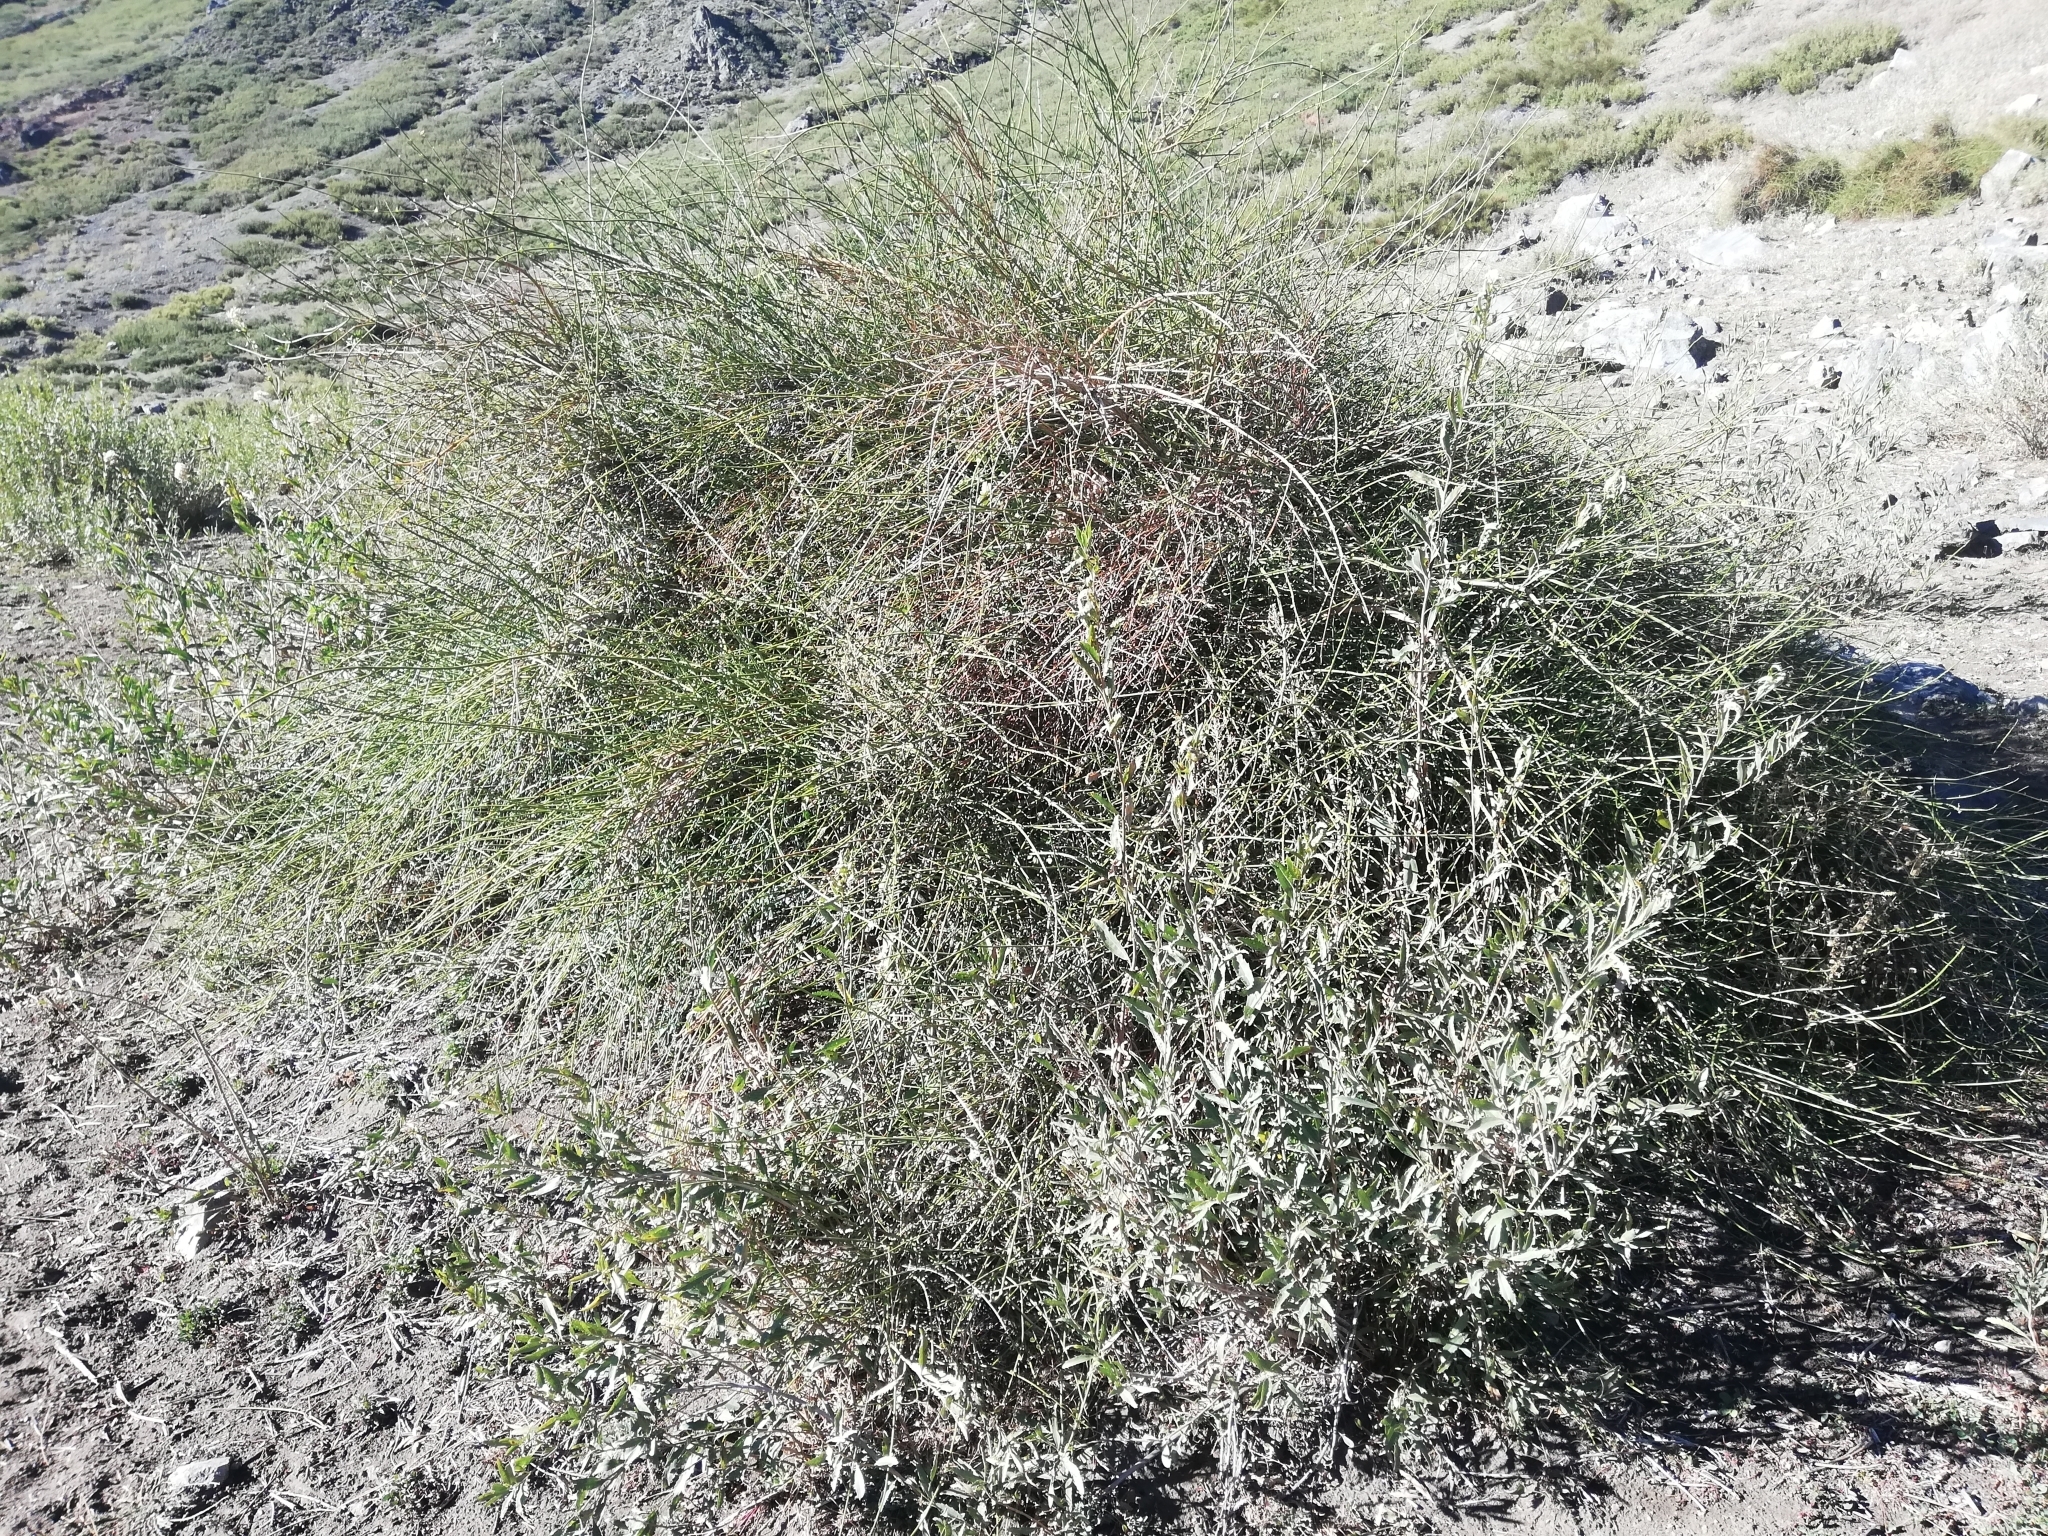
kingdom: Plantae
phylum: Tracheophyta
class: Magnoliopsida
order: Fabales
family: Fabaceae
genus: Spartium
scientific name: Spartium junceum
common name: Spanish broom
